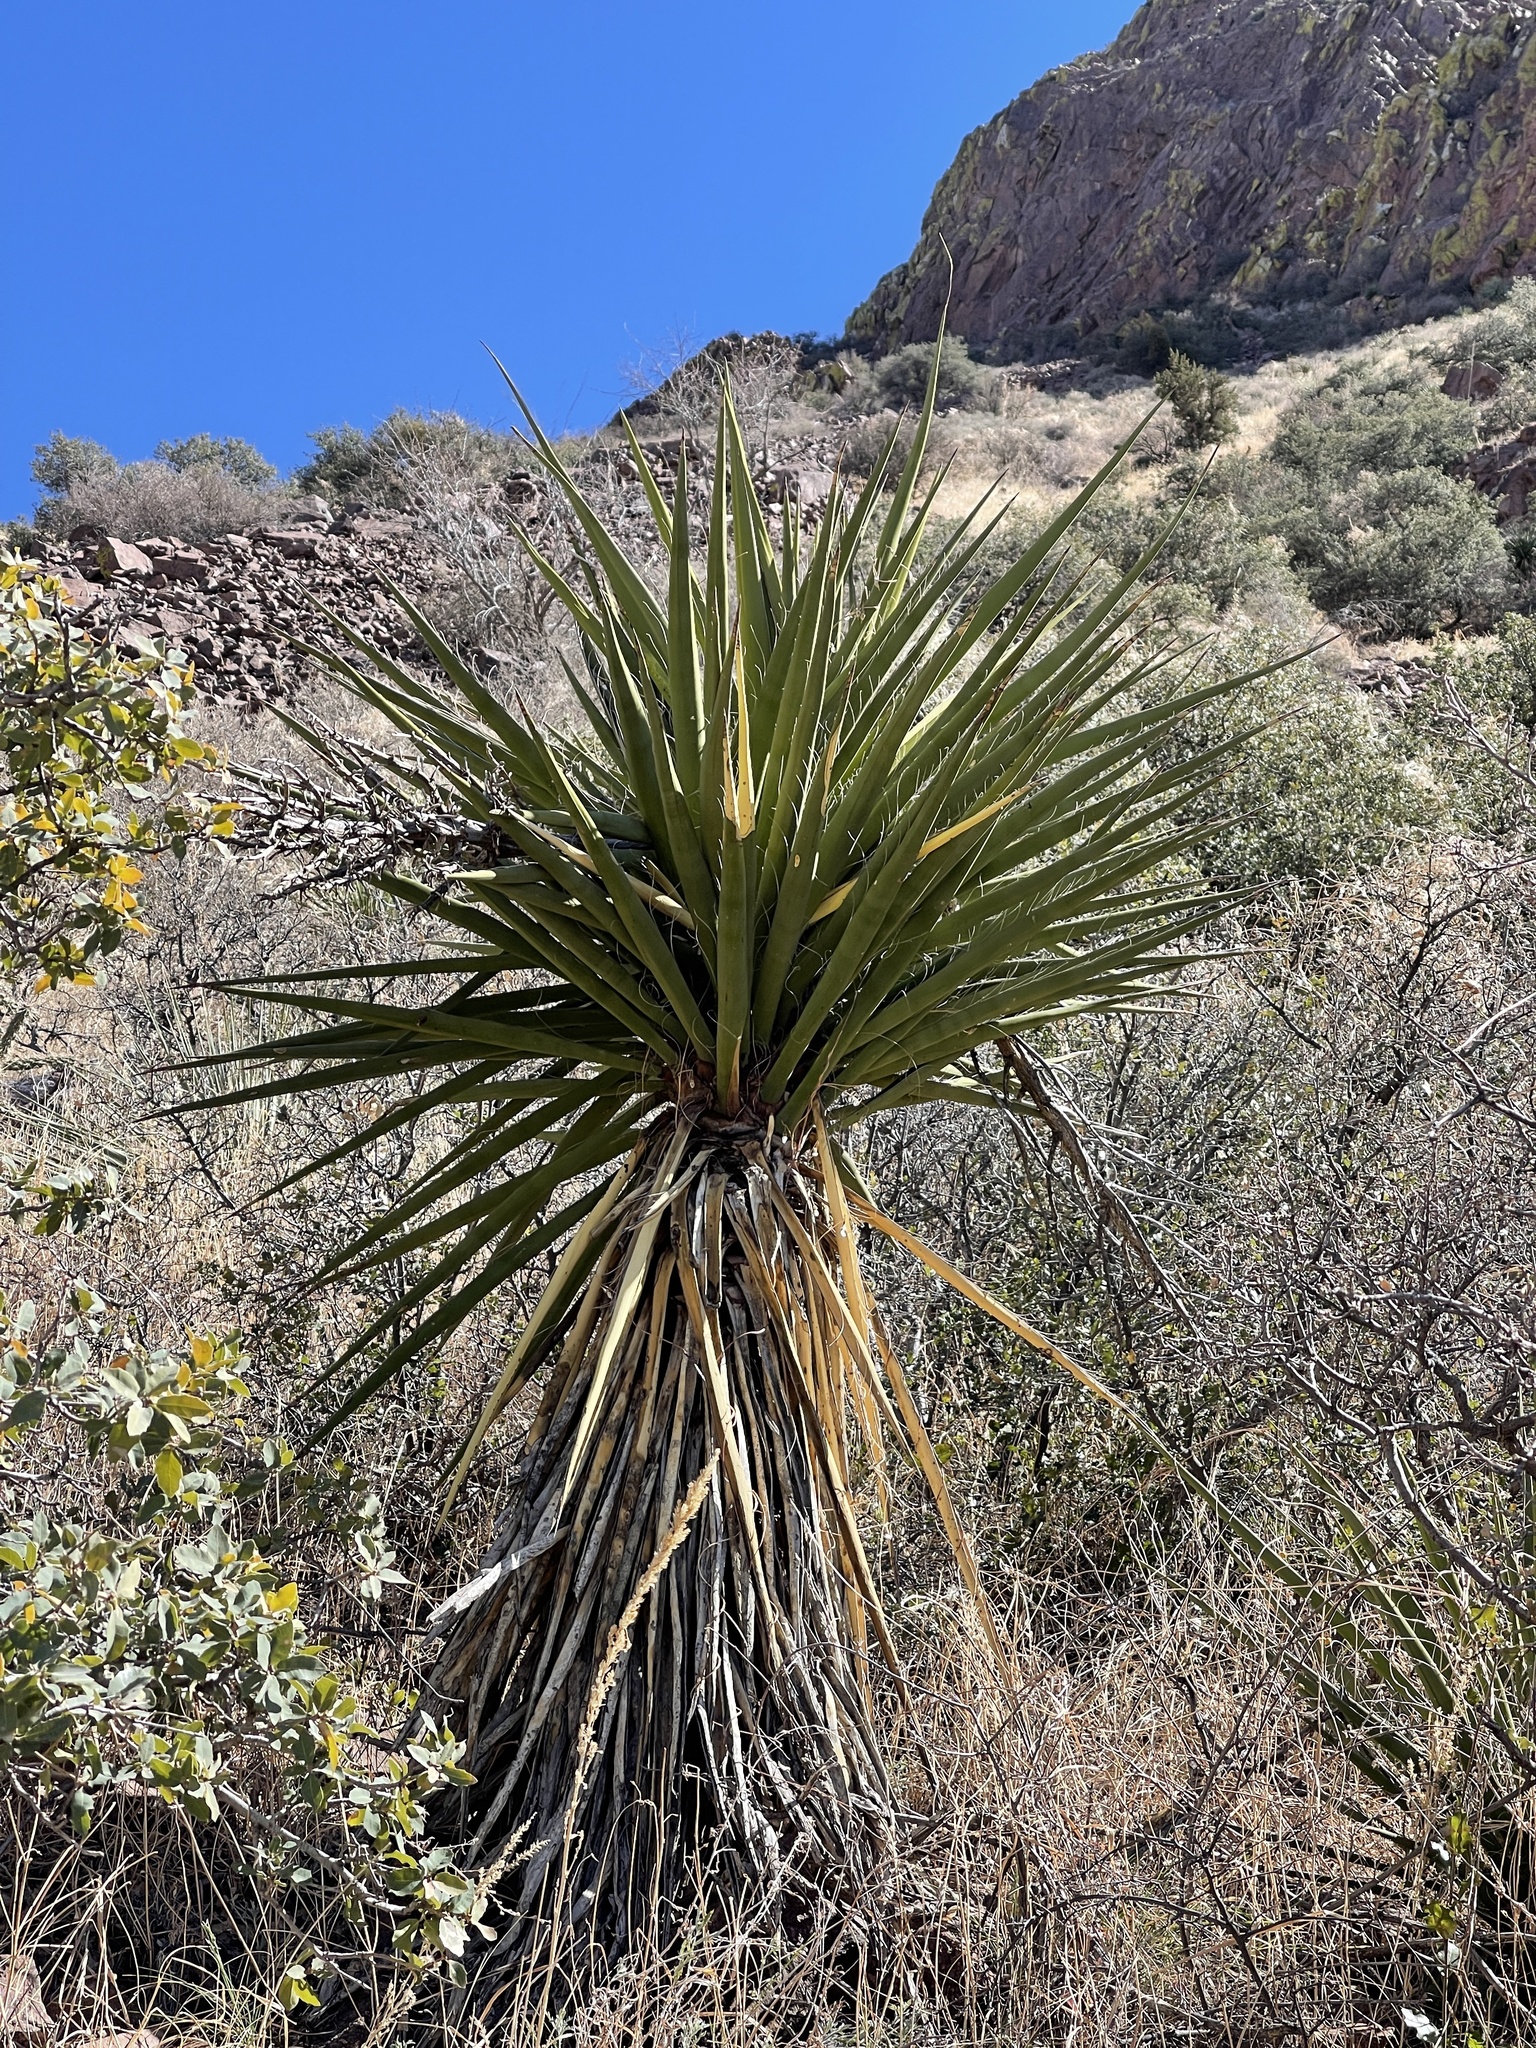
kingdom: Plantae
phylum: Tracheophyta
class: Liliopsida
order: Asparagales
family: Asparagaceae
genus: Yucca
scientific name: Yucca treculiana
